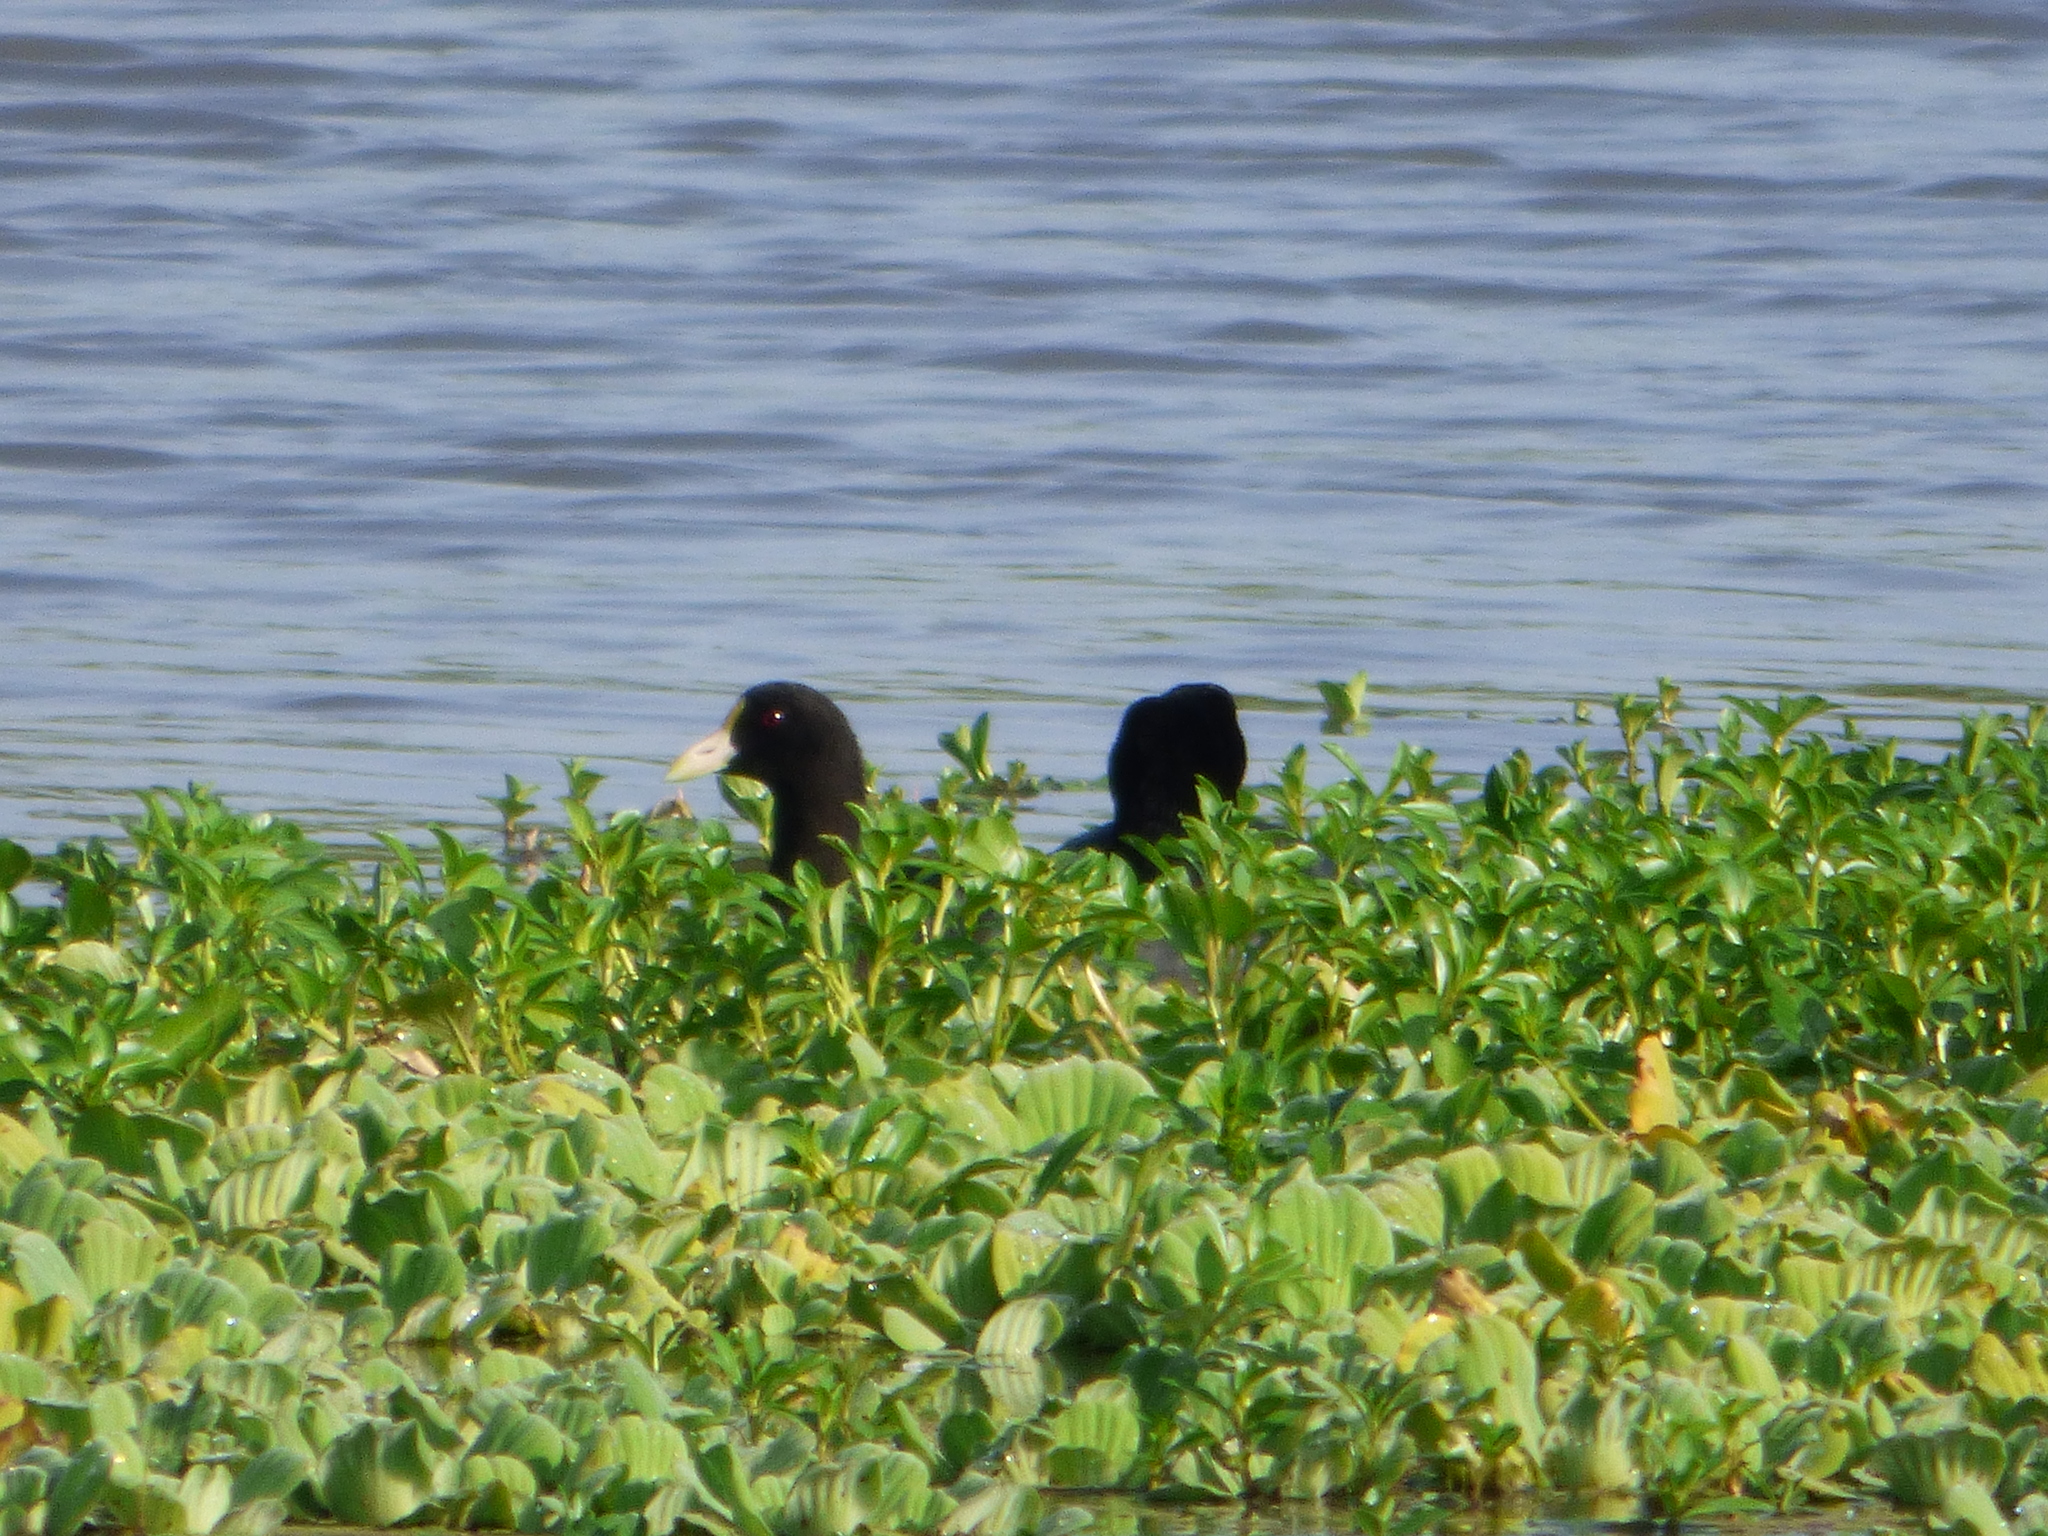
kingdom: Animalia
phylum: Chordata
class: Aves
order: Gruiformes
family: Rallidae
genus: Fulica
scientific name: Fulica leucoptera
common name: White-winged coot
